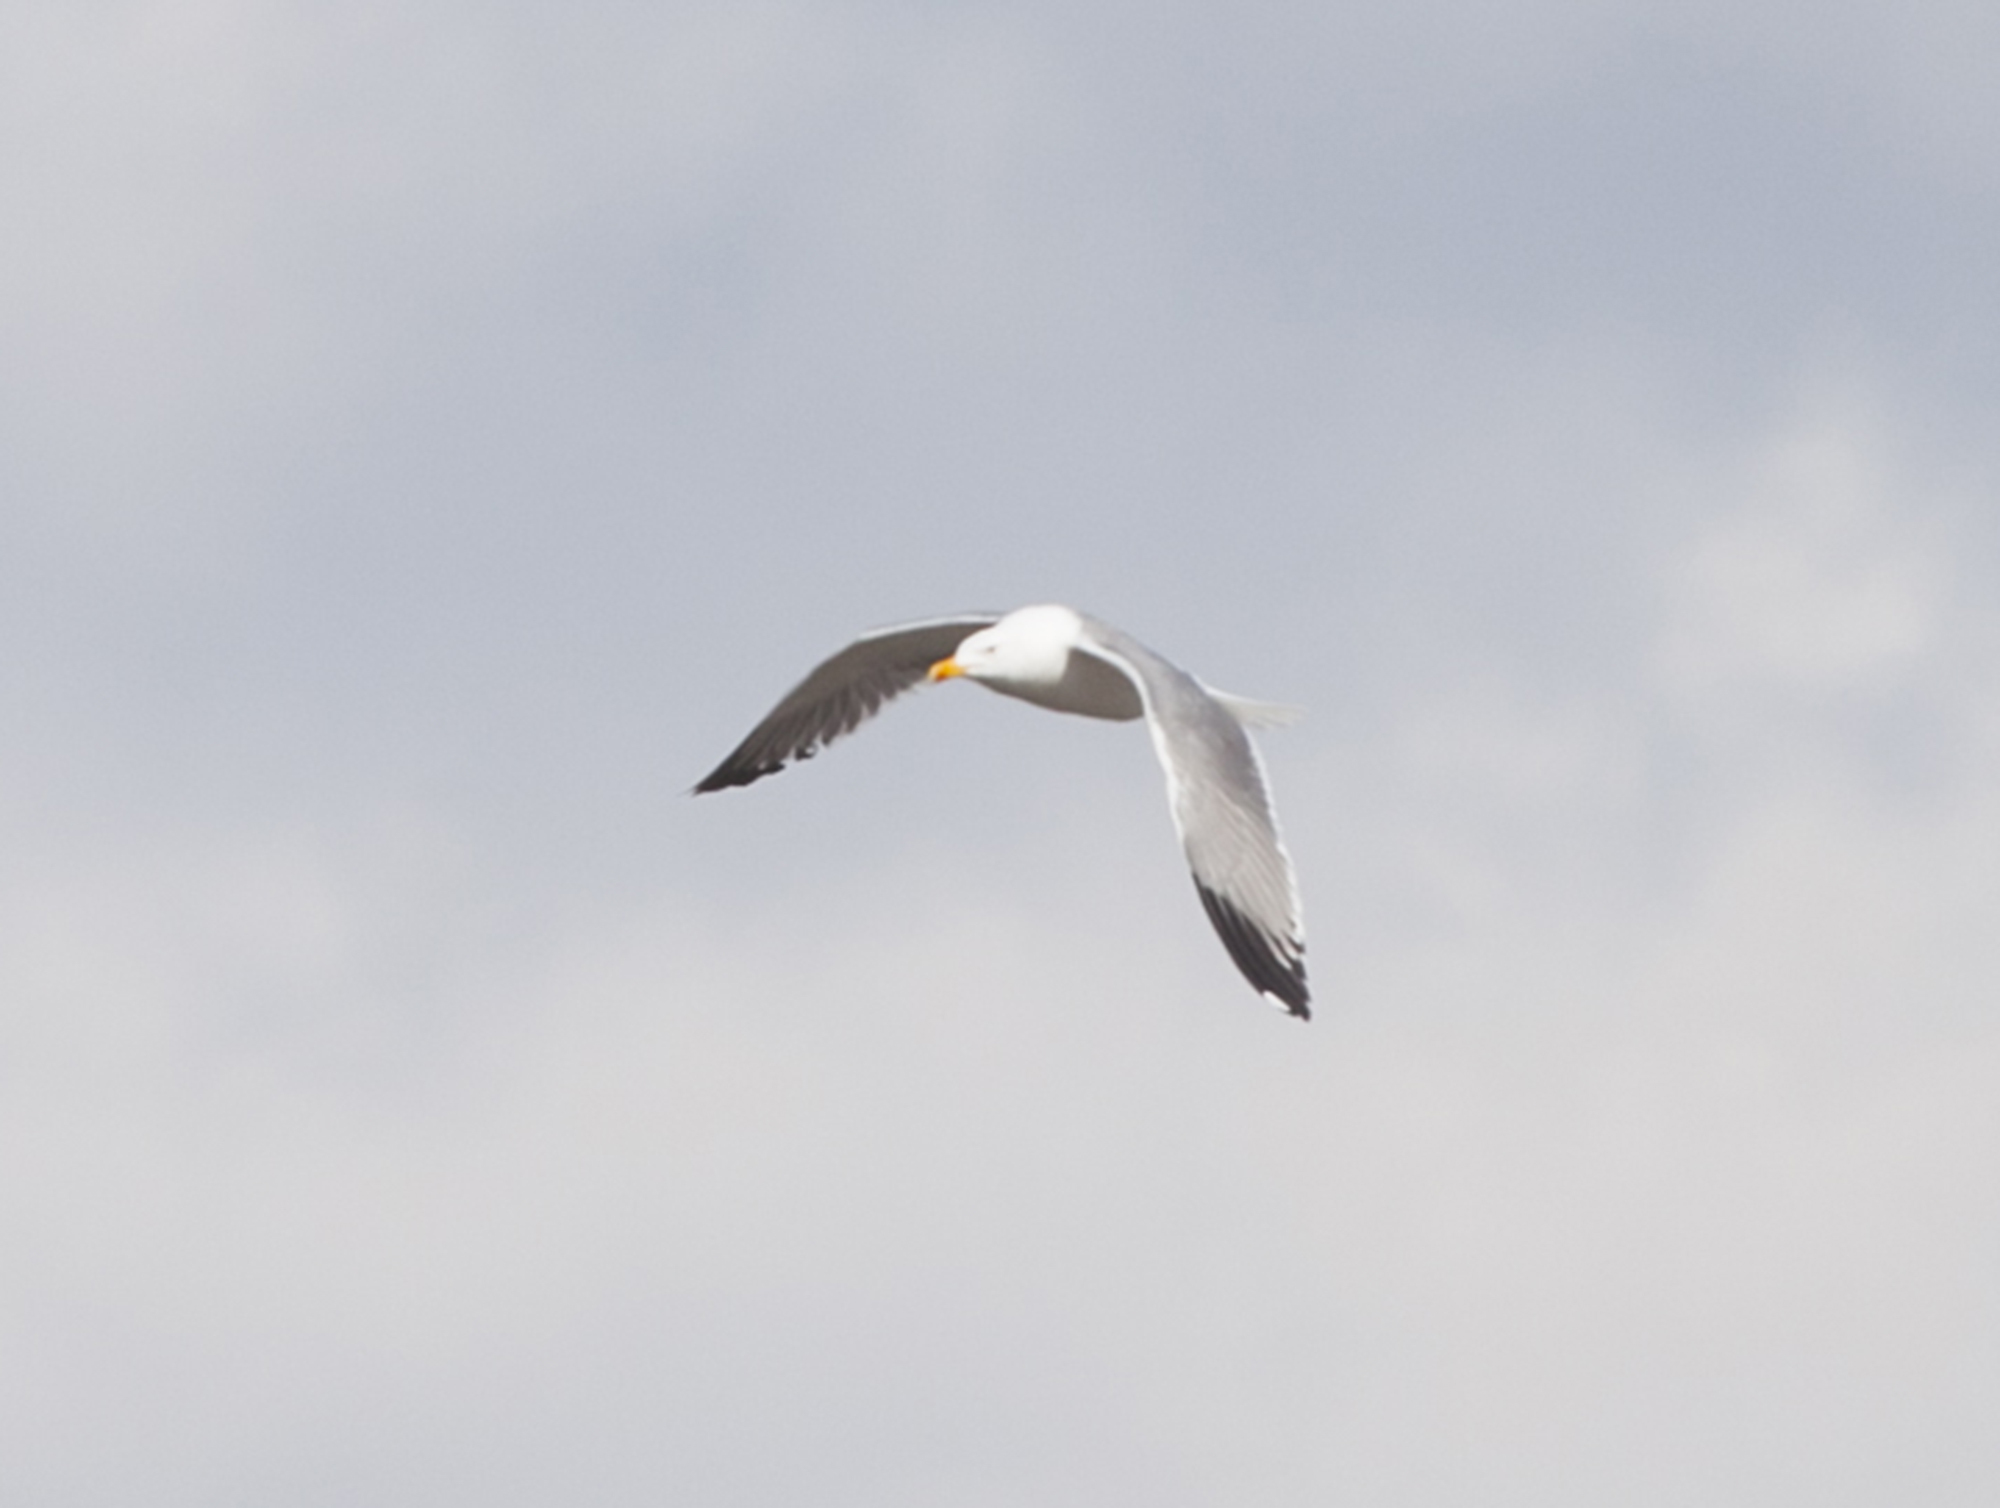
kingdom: Animalia
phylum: Chordata
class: Aves
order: Charadriiformes
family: Laridae
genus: Larus
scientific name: Larus fuscus
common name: Lesser black-backed gull
